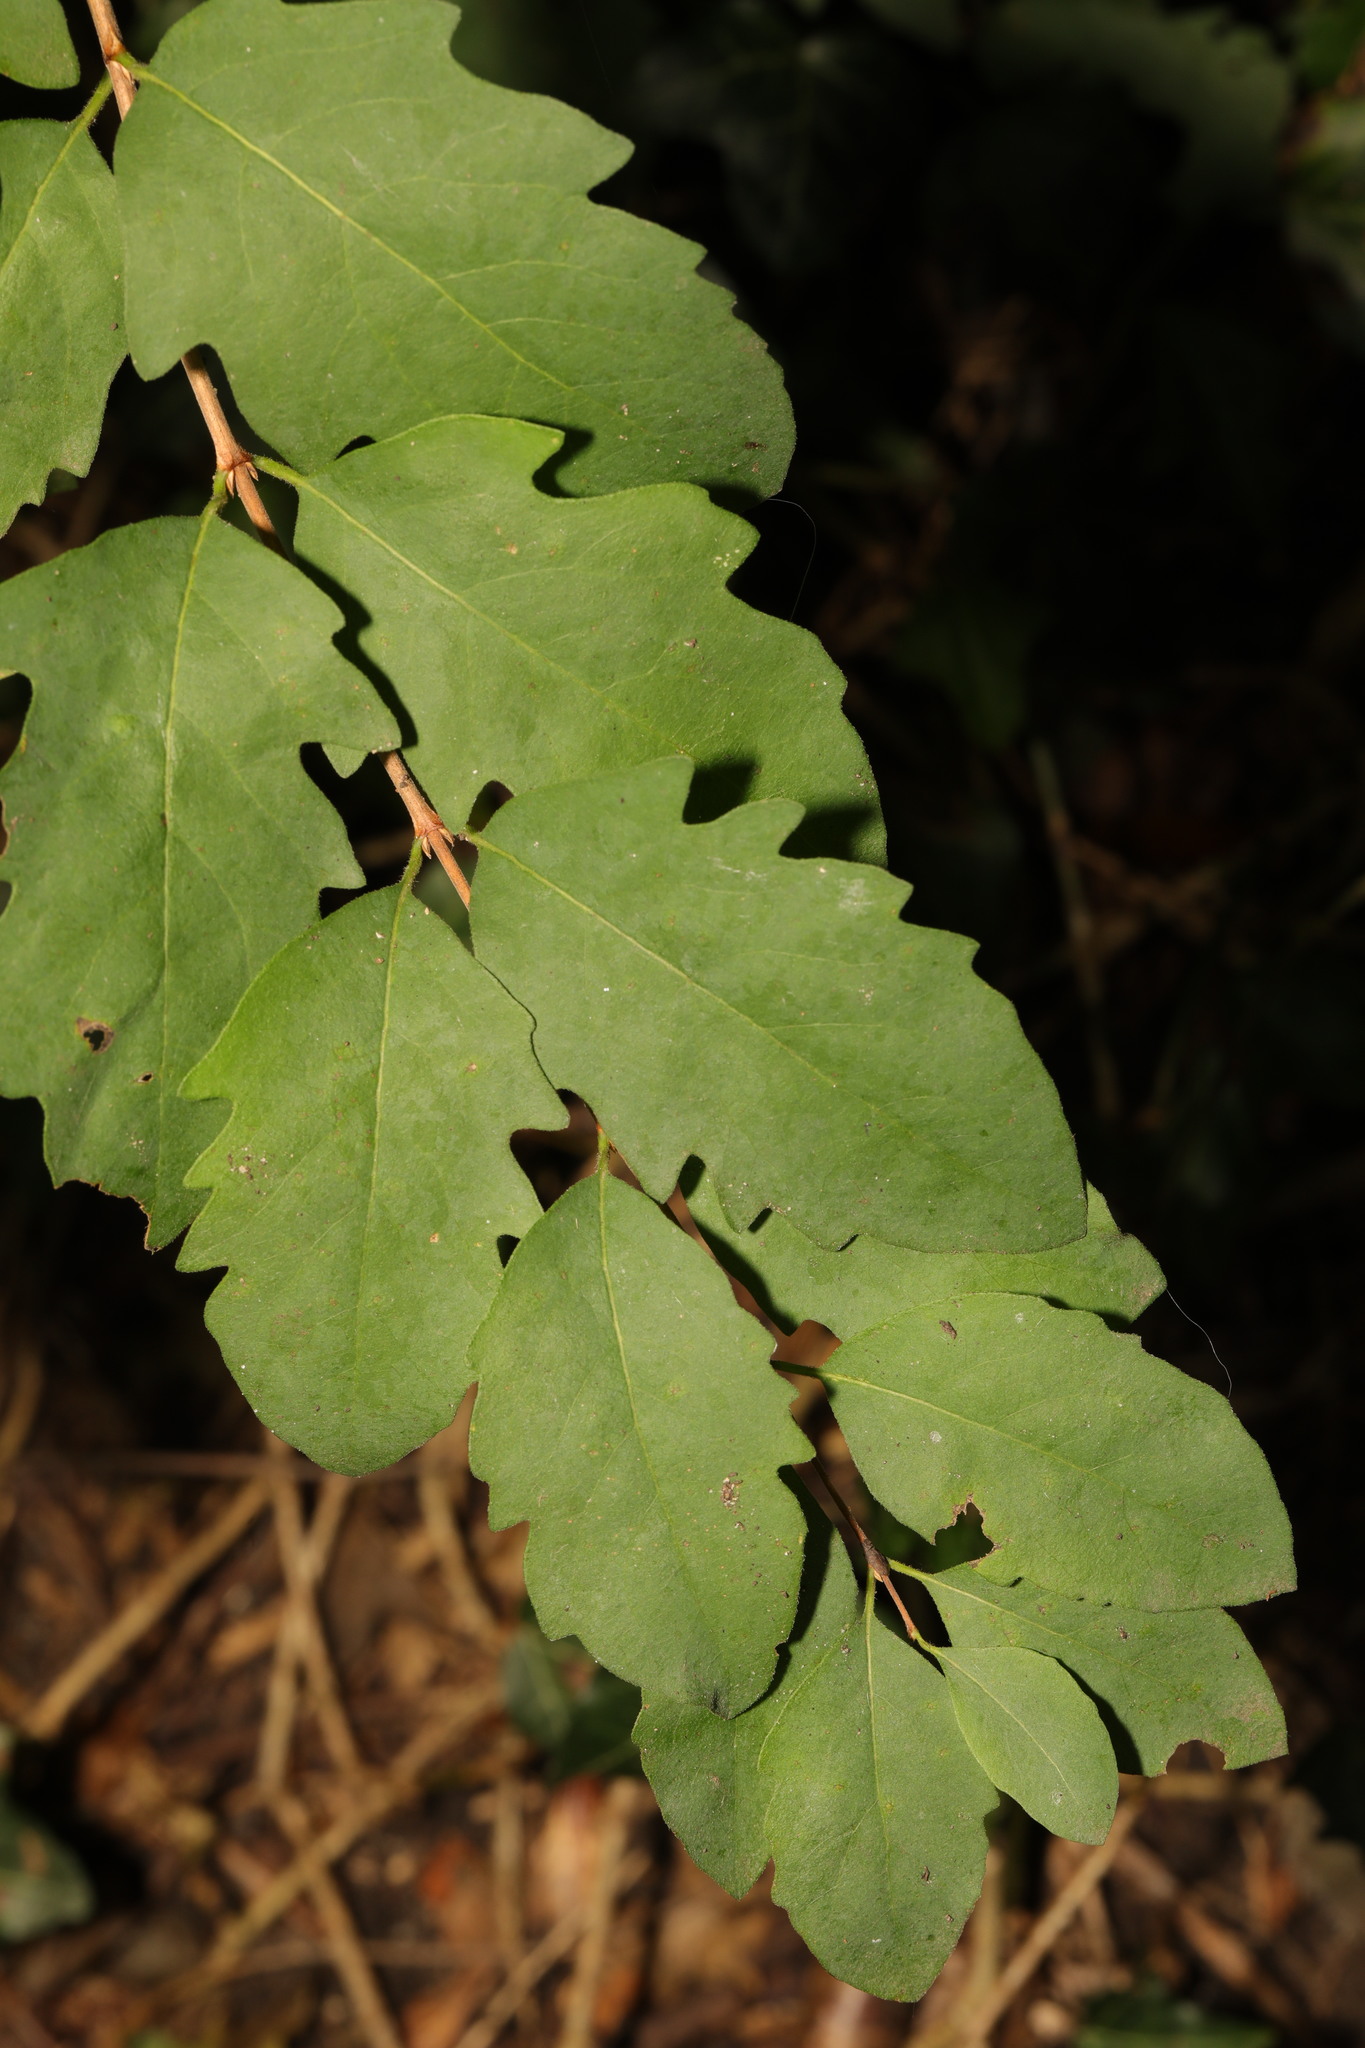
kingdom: Plantae
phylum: Tracheophyta
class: Magnoliopsida
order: Dipsacales
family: Caprifoliaceae
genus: Symphoricarpos
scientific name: Symphoricarpos albus
